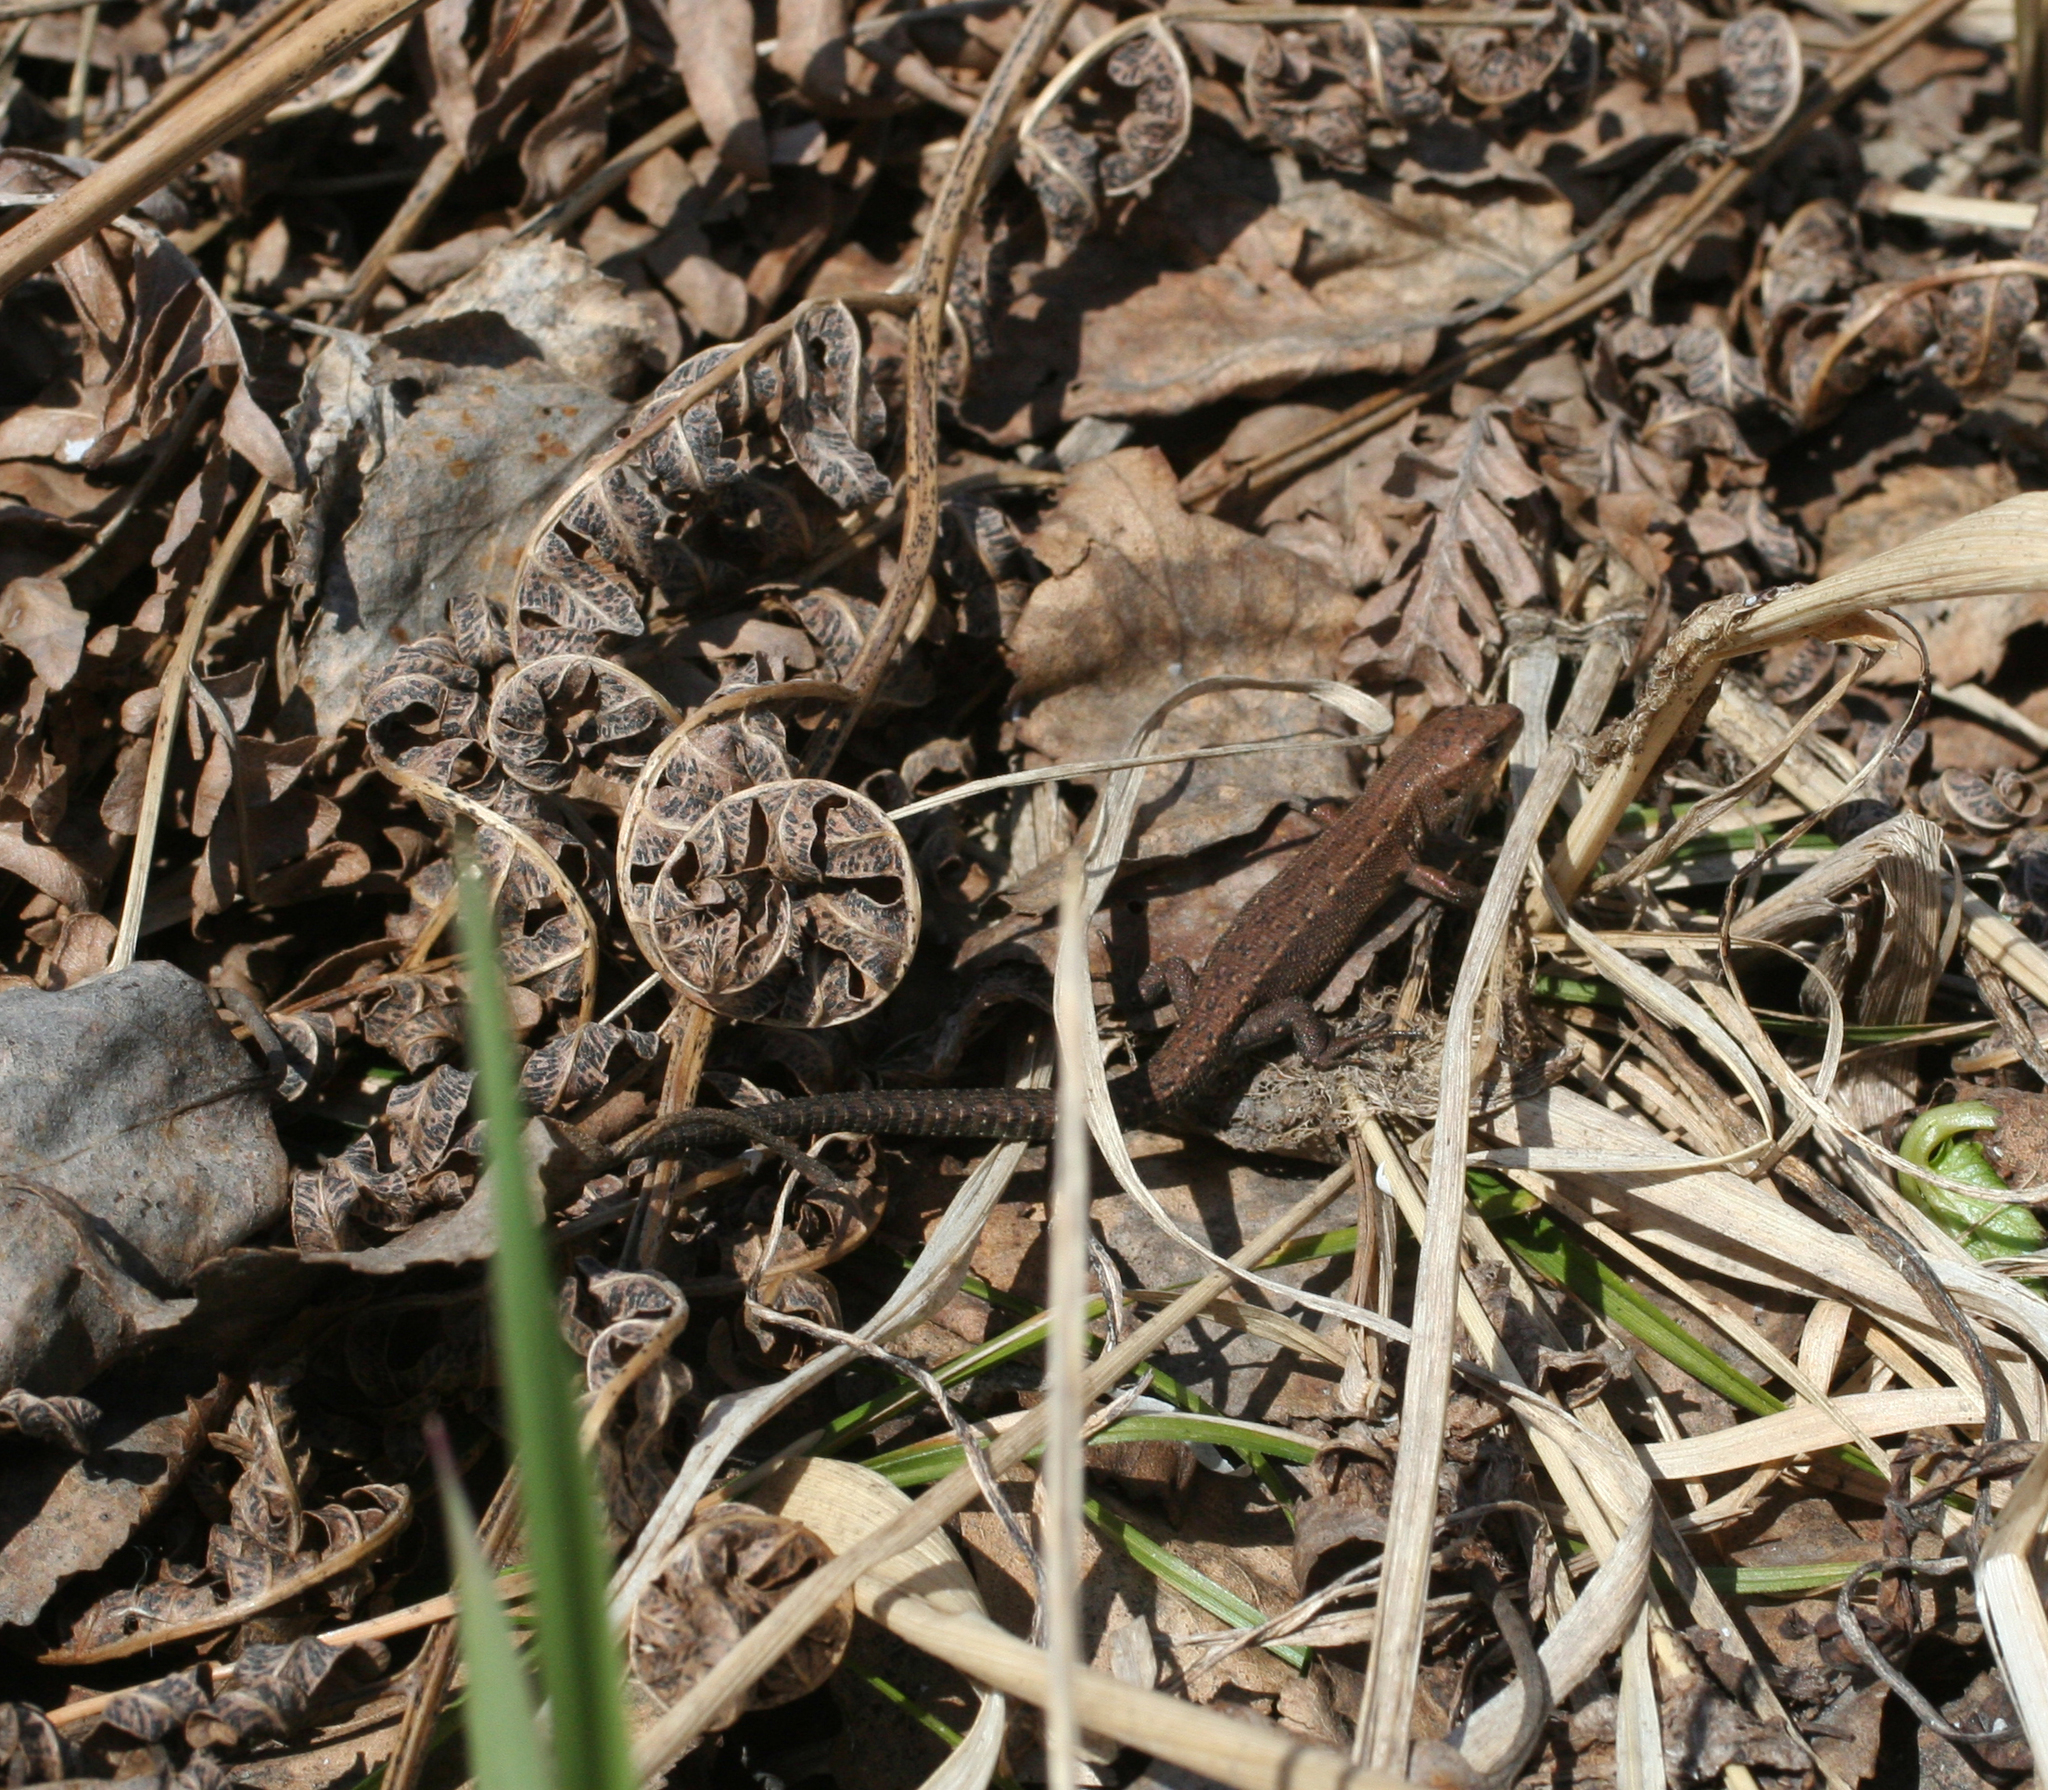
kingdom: Animalia
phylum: Chordata
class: Squamata
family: Lacertidae
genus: Zootoca
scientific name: Zootoca vivipara
